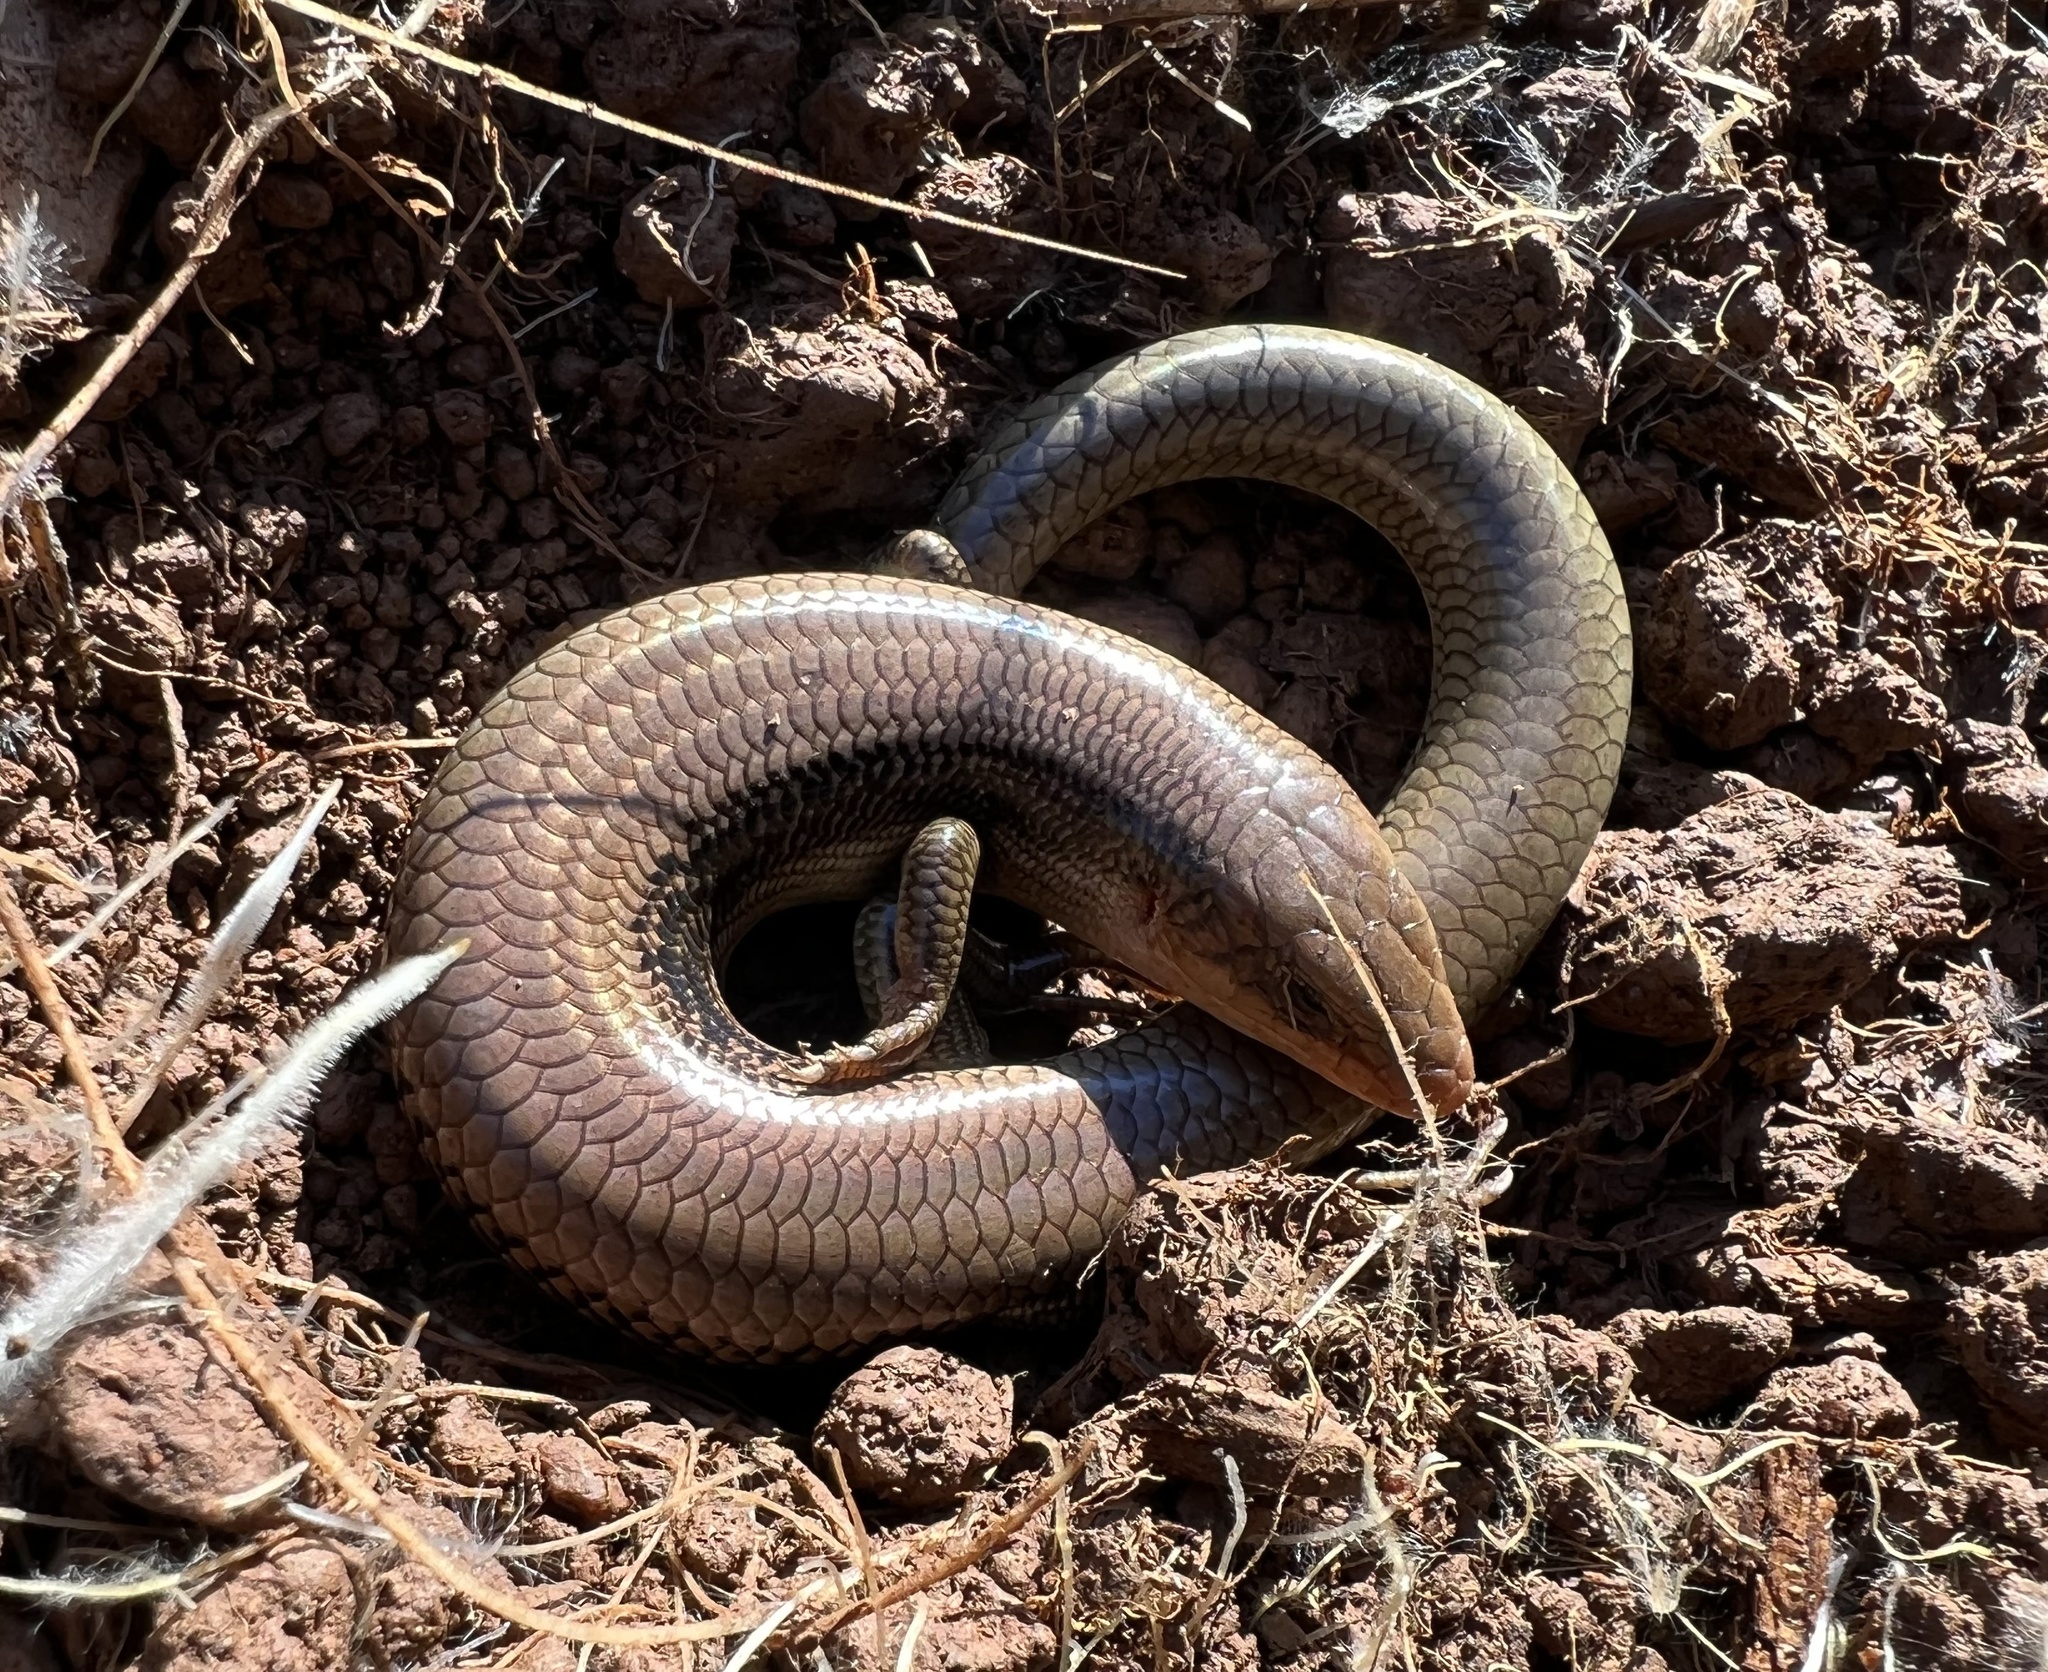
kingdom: Animalia
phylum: Chordata
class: Squamata
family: Scincidae
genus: Plestiodon
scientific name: Plestiodon gilberti
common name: Gilbert's skink
